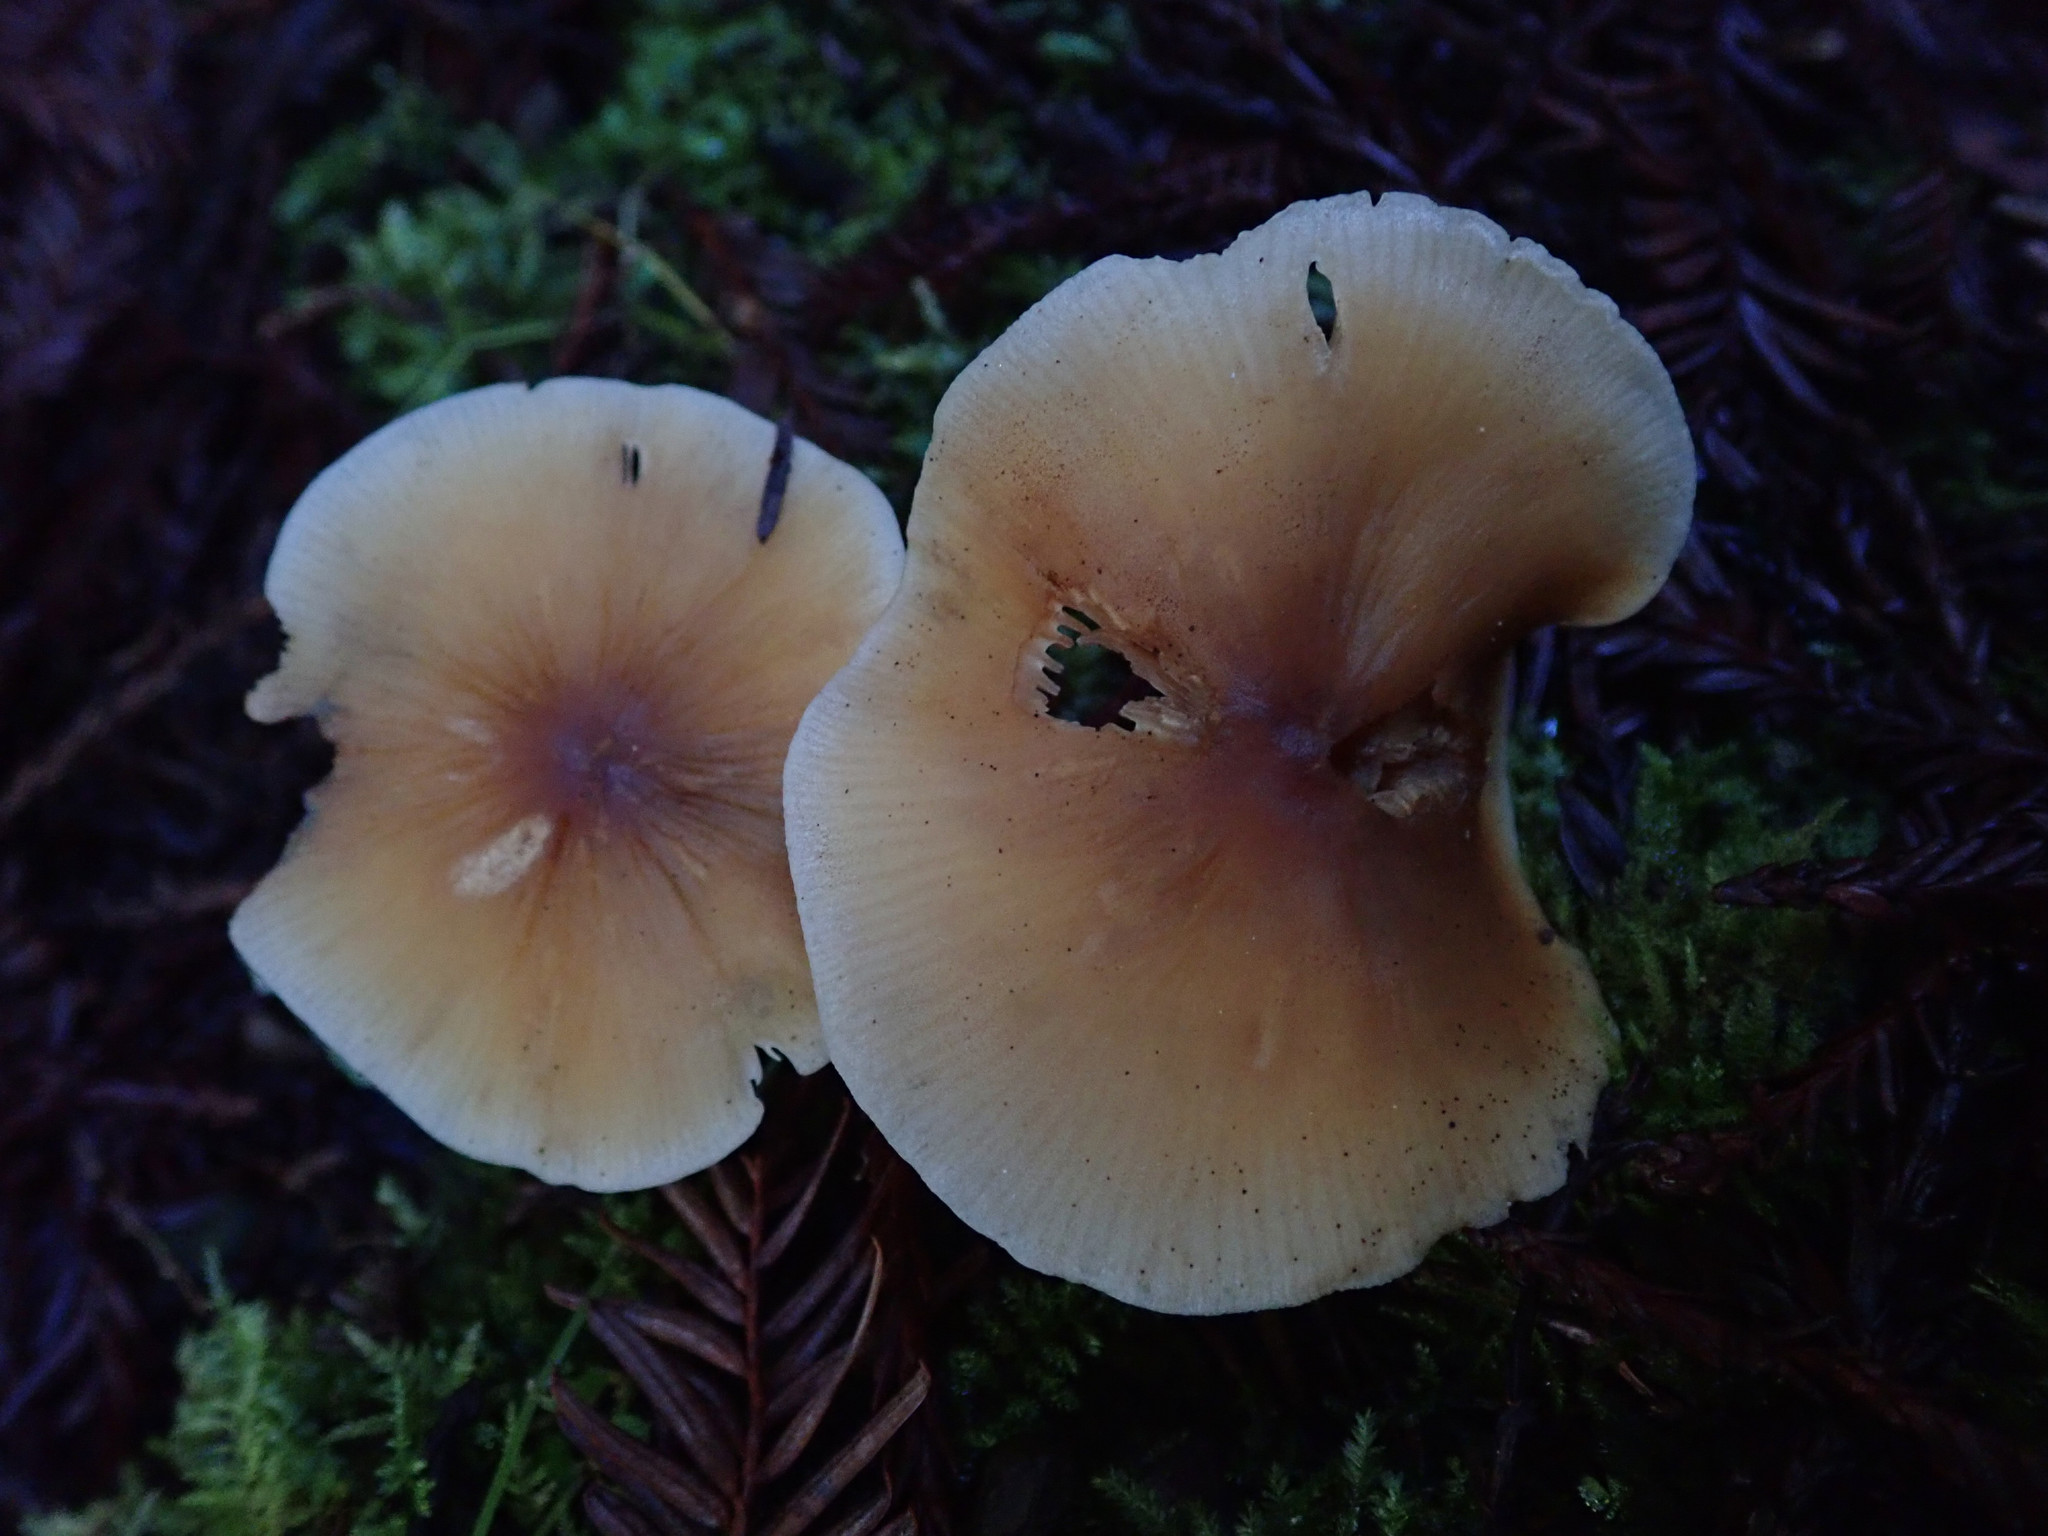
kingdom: Fungi
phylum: Basidiomycota
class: Agaricomycetes
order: Agaricales
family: Tricholomataceae
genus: Caulorhiza
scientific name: Caulorhiza umbonata
